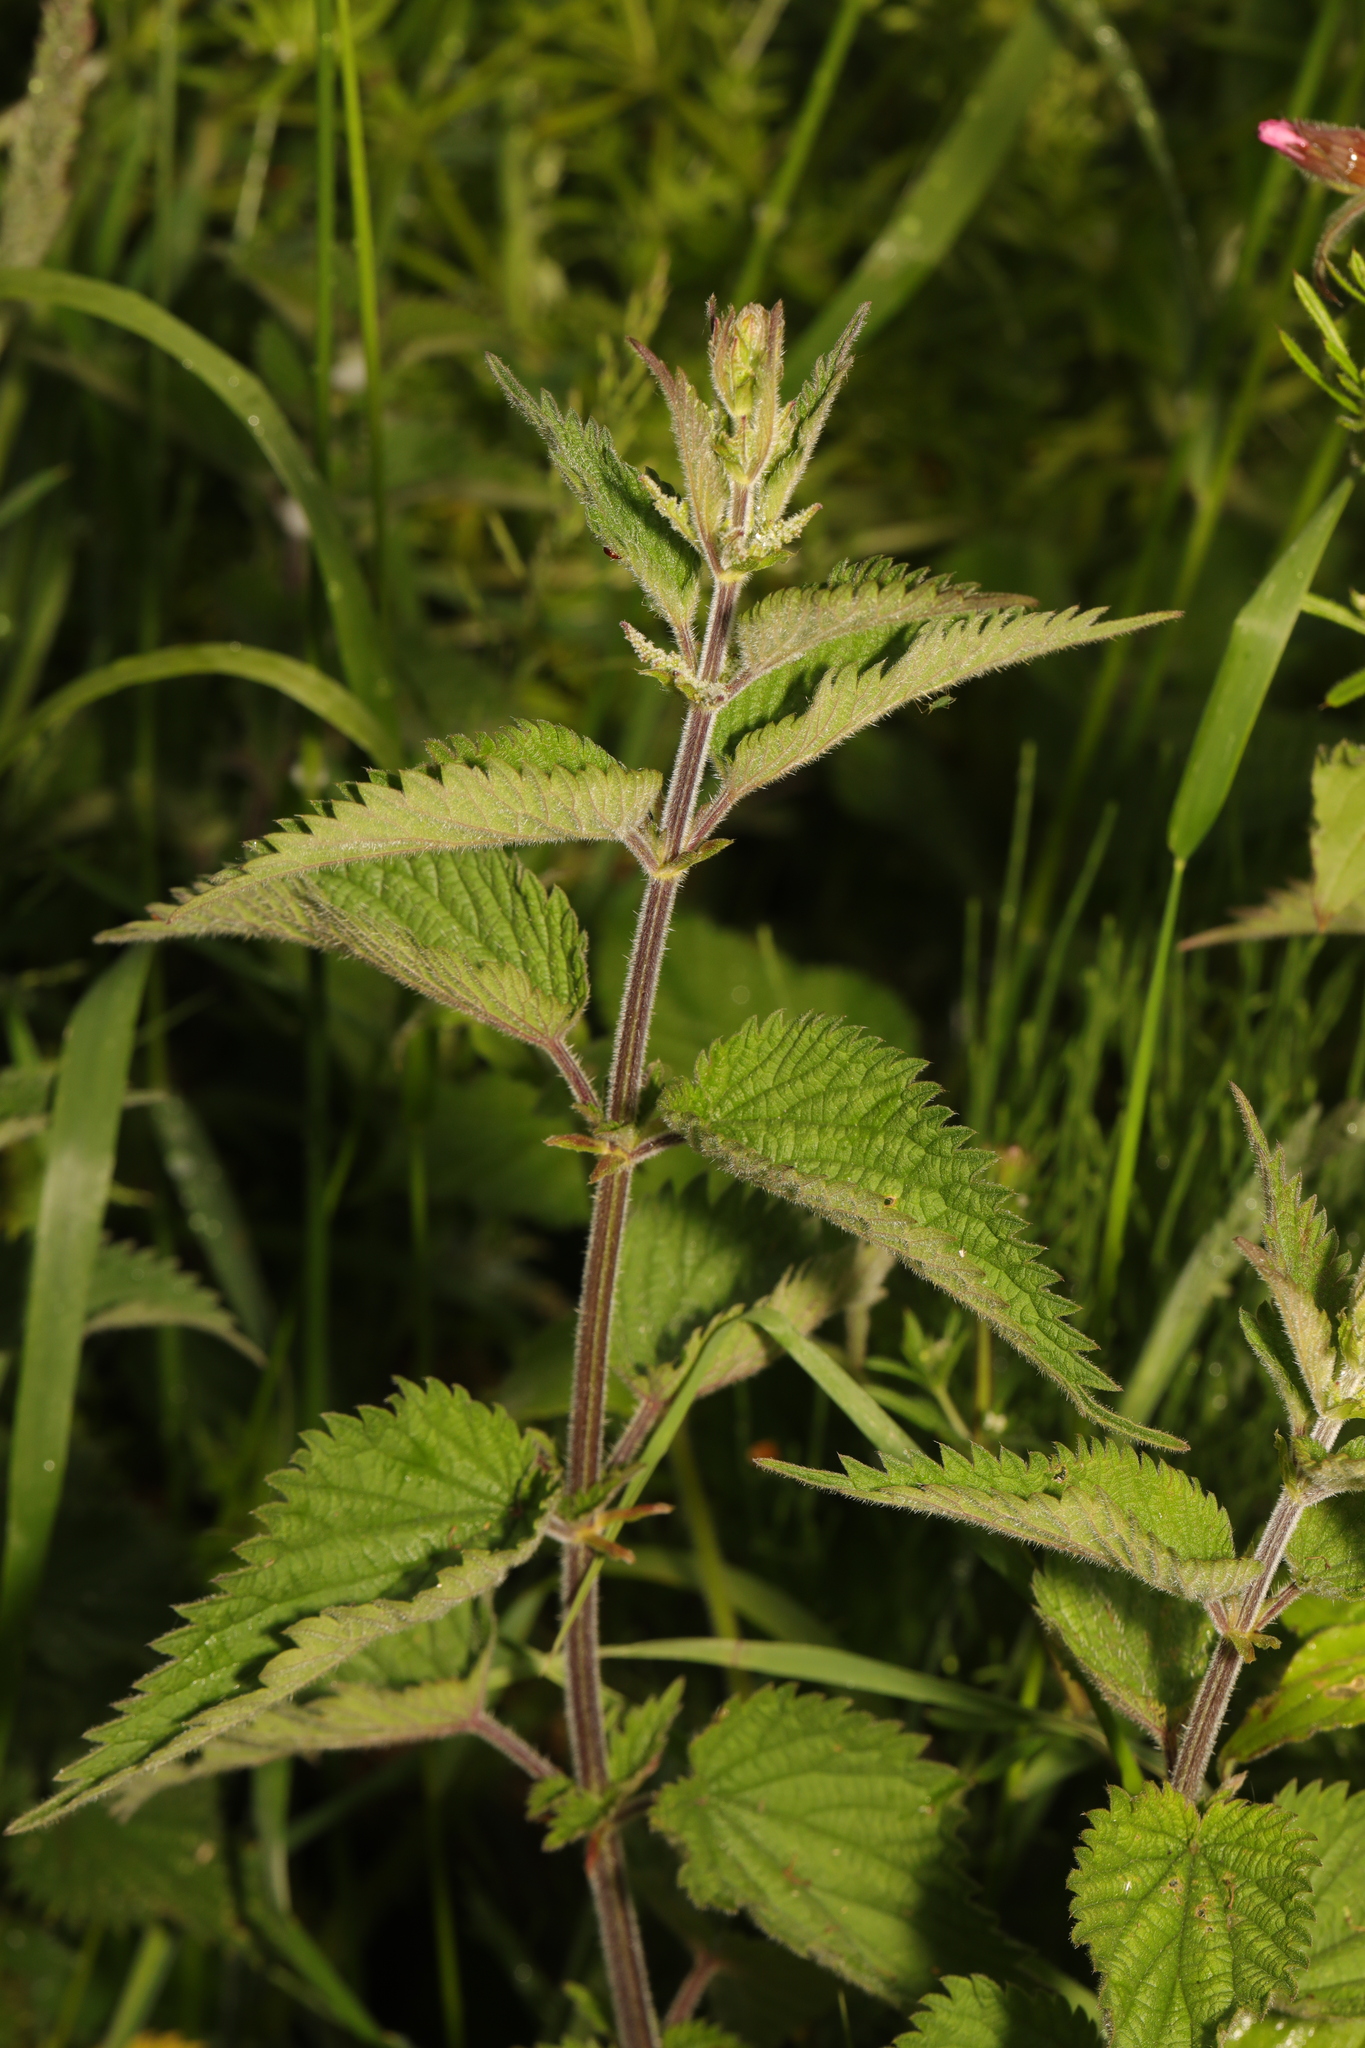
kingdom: Plantae
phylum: Tracheophyta
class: Magnoliopsida
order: Rosales
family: Urticaceae
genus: Urtica
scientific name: Urtica dioica
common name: Common nettle
